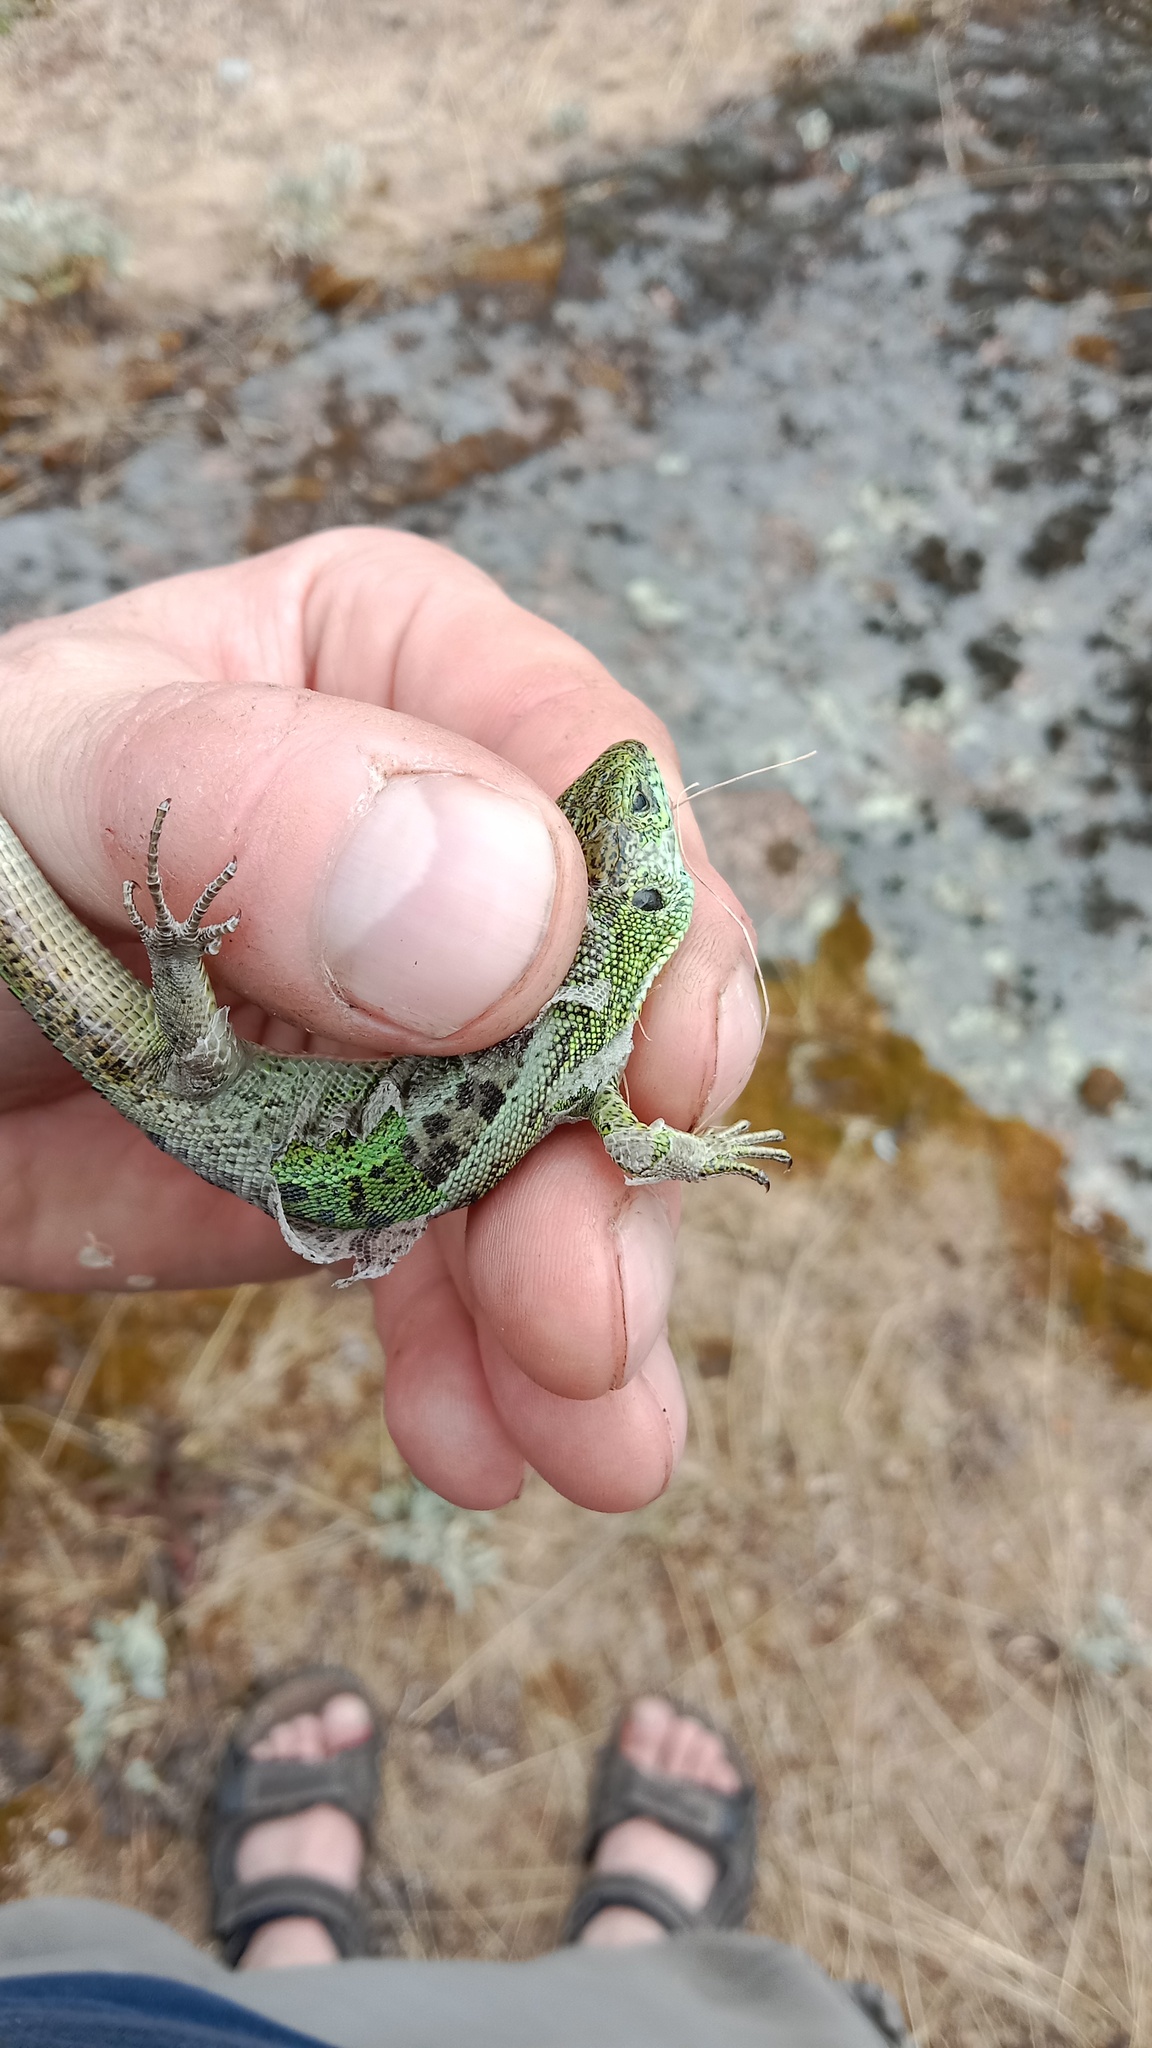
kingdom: Animalia
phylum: Chordata
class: Squamata
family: Lacertidae
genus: Lacerta
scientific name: Lacerta agilis
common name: Sand lizard
